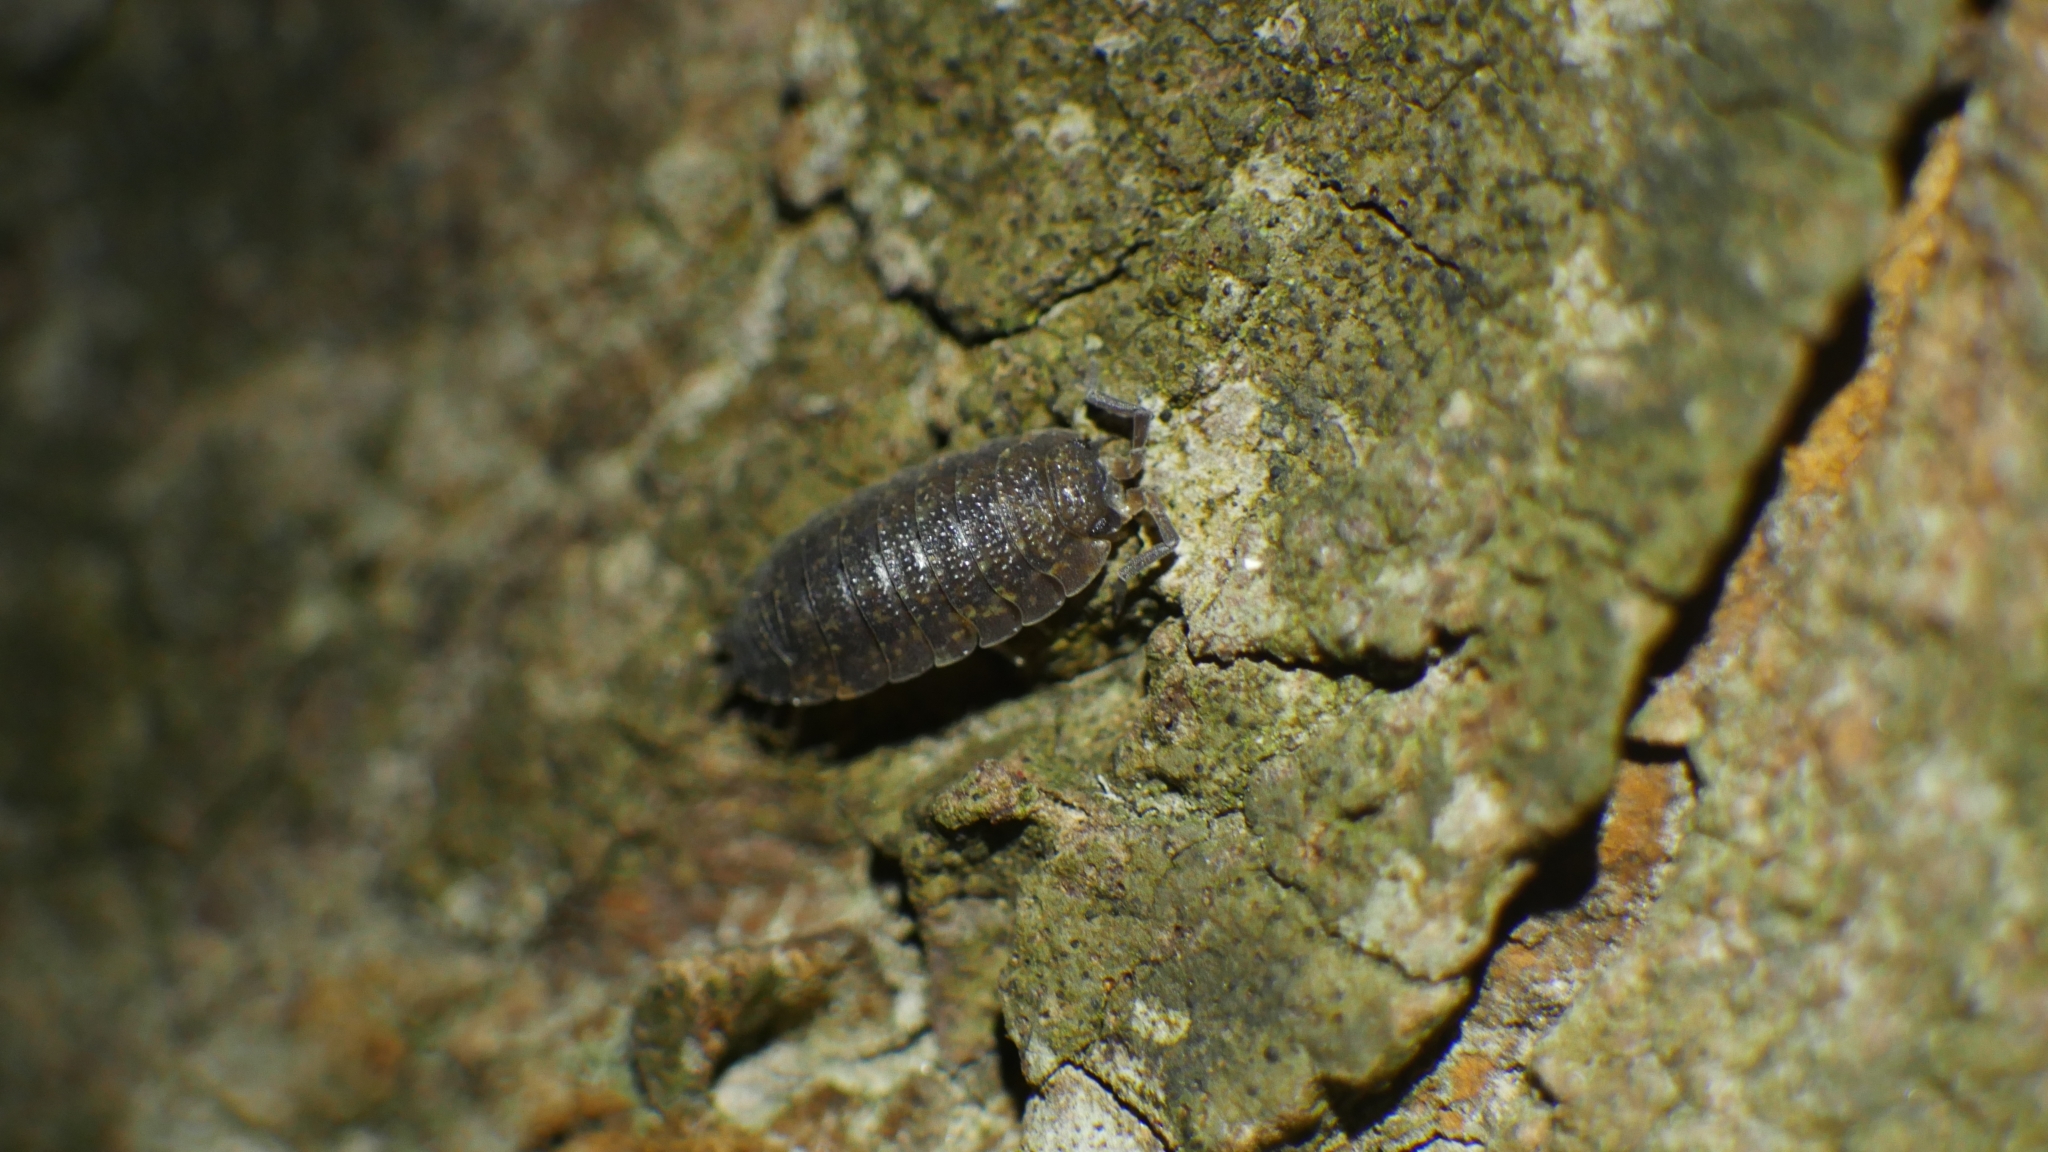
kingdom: Animalia
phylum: Arthropoda
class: Malacostraca
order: Isopoda
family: Porcellionidae
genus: Porcellio
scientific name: Porcellio scaber
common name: Common rough woodlouse
